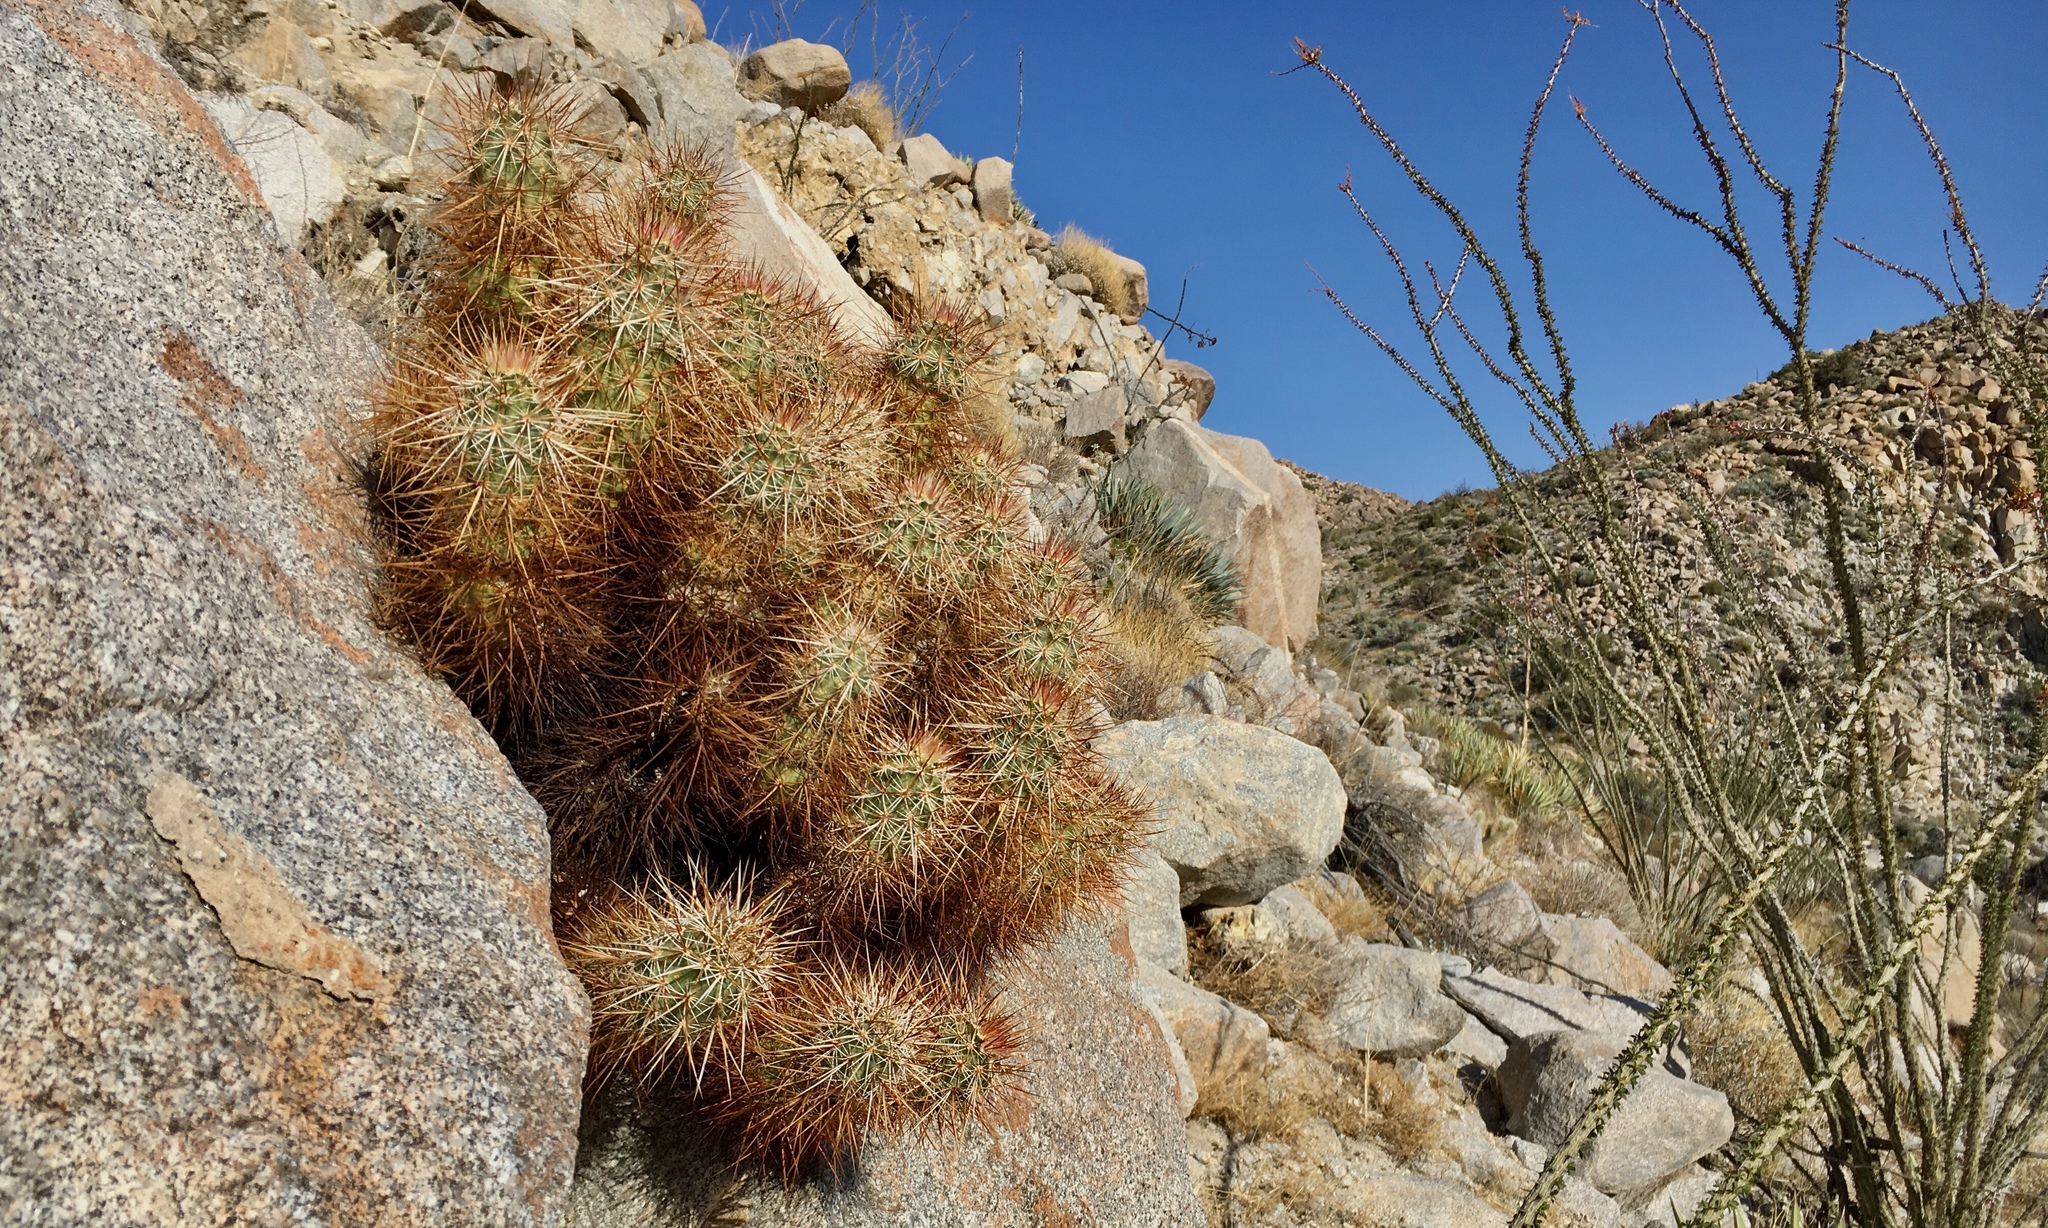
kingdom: Plantae
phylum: Tracheophyta
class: Magnoliopsida
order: Caryophyllales
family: Cactaceae
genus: Echinocereus
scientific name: Echinocereus engelmannii
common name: Engelmann's hedgehog cactus
